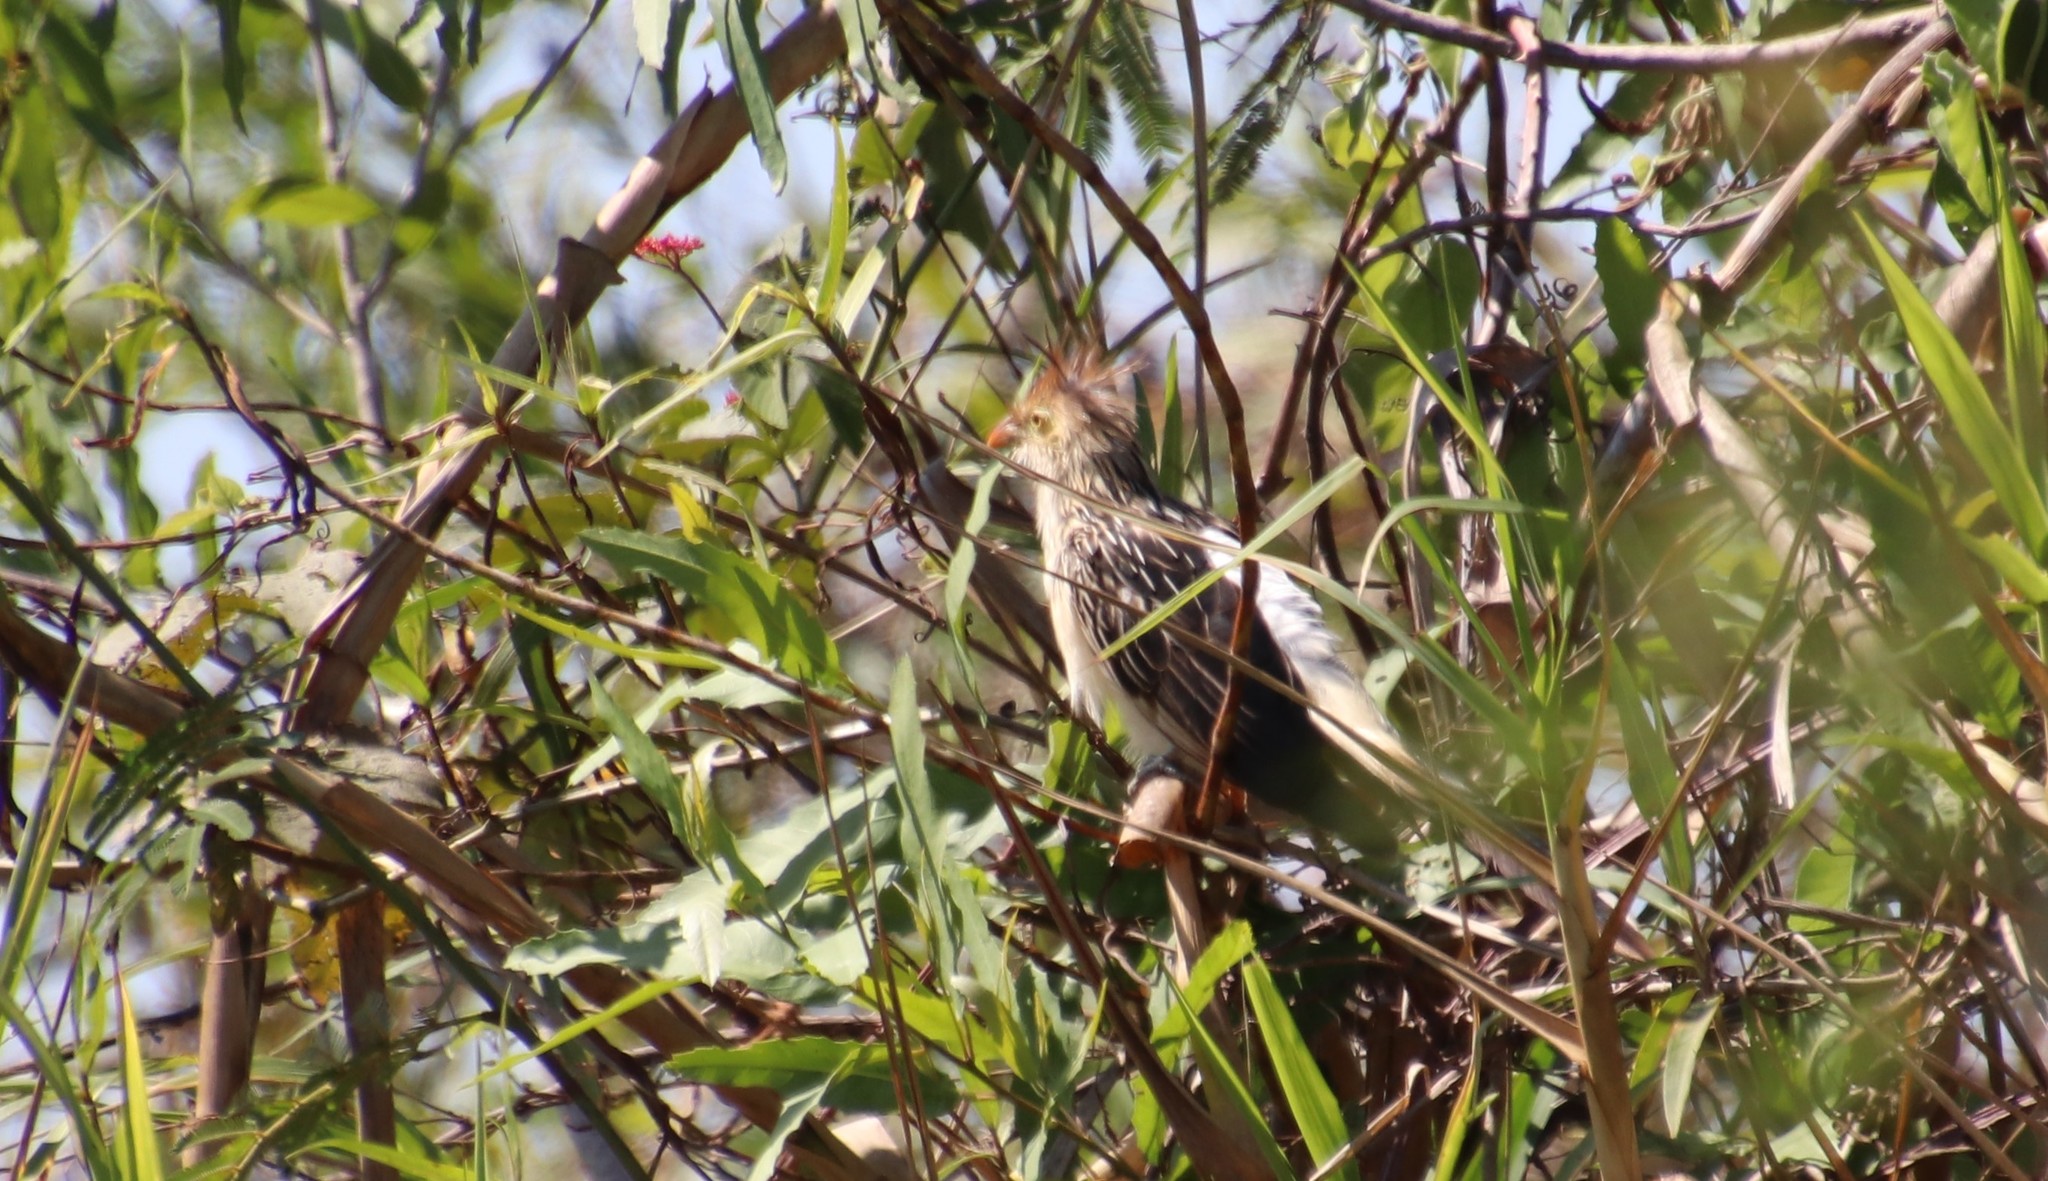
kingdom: Animalia
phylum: Chordata
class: Aves
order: Cuculiformes
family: Cuculidae
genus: Guira
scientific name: Guira guira
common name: Guira cuckoo
